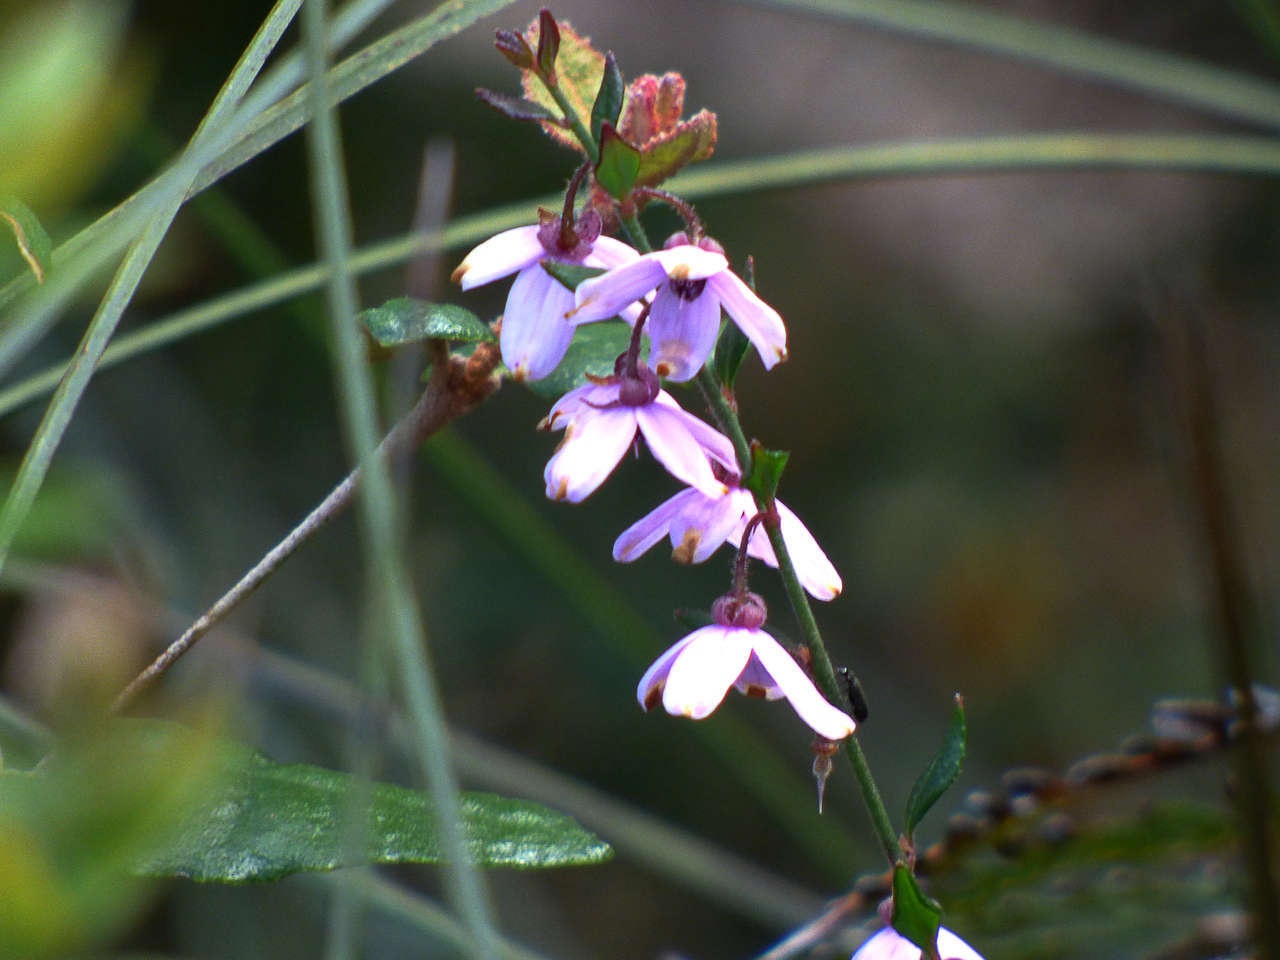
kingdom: Plantae
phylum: Tracheophyta
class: Magnoliopsida
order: Oxalidales
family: Elaeocarpaceae
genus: Tetratheca
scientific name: Tetratheca ciliata
